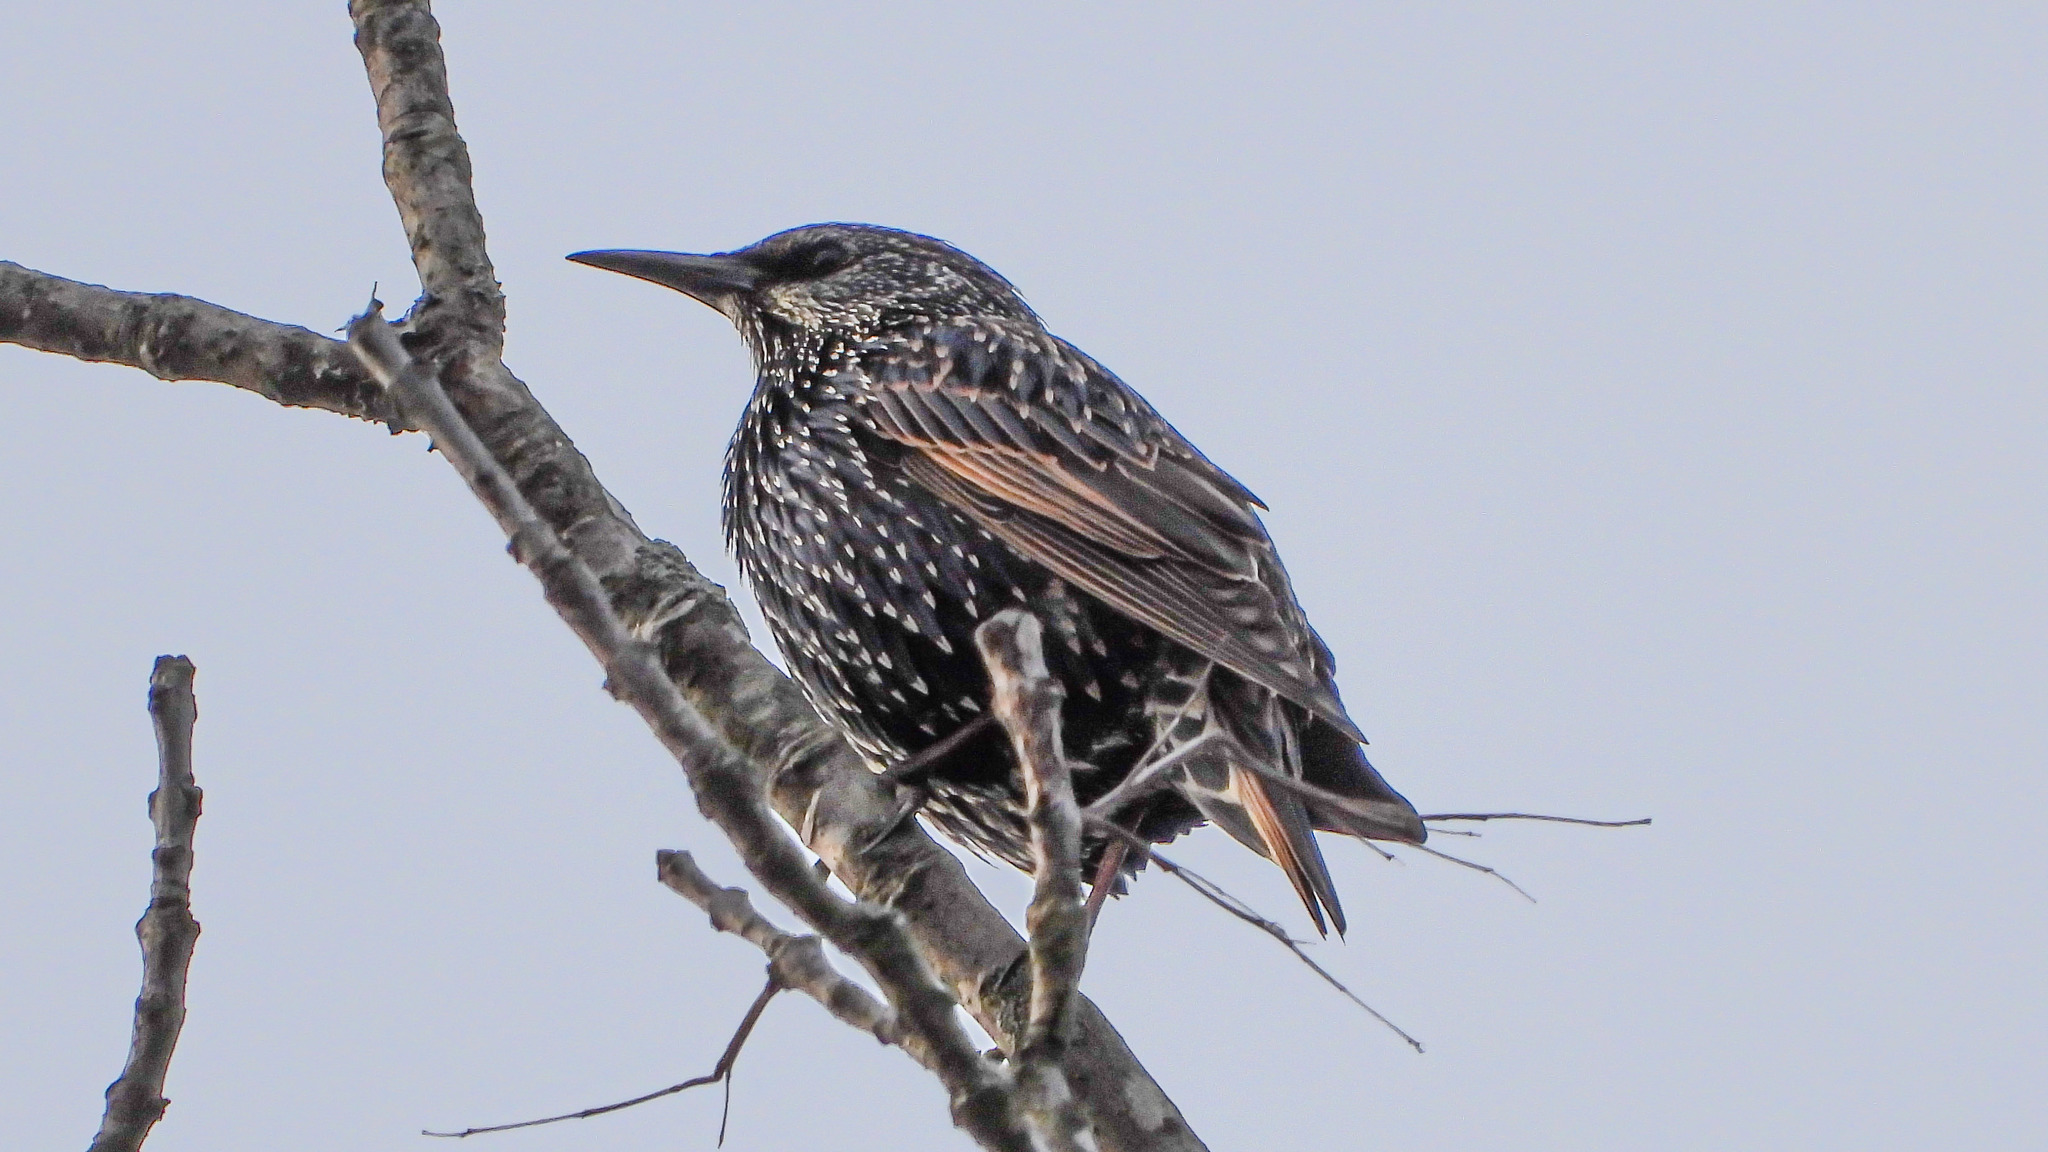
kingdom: Animalia
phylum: Chordata
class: Aves
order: Passeriformes
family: Sturnidae
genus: Sturnus
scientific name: Sturnus vulgaris
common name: Common starling
